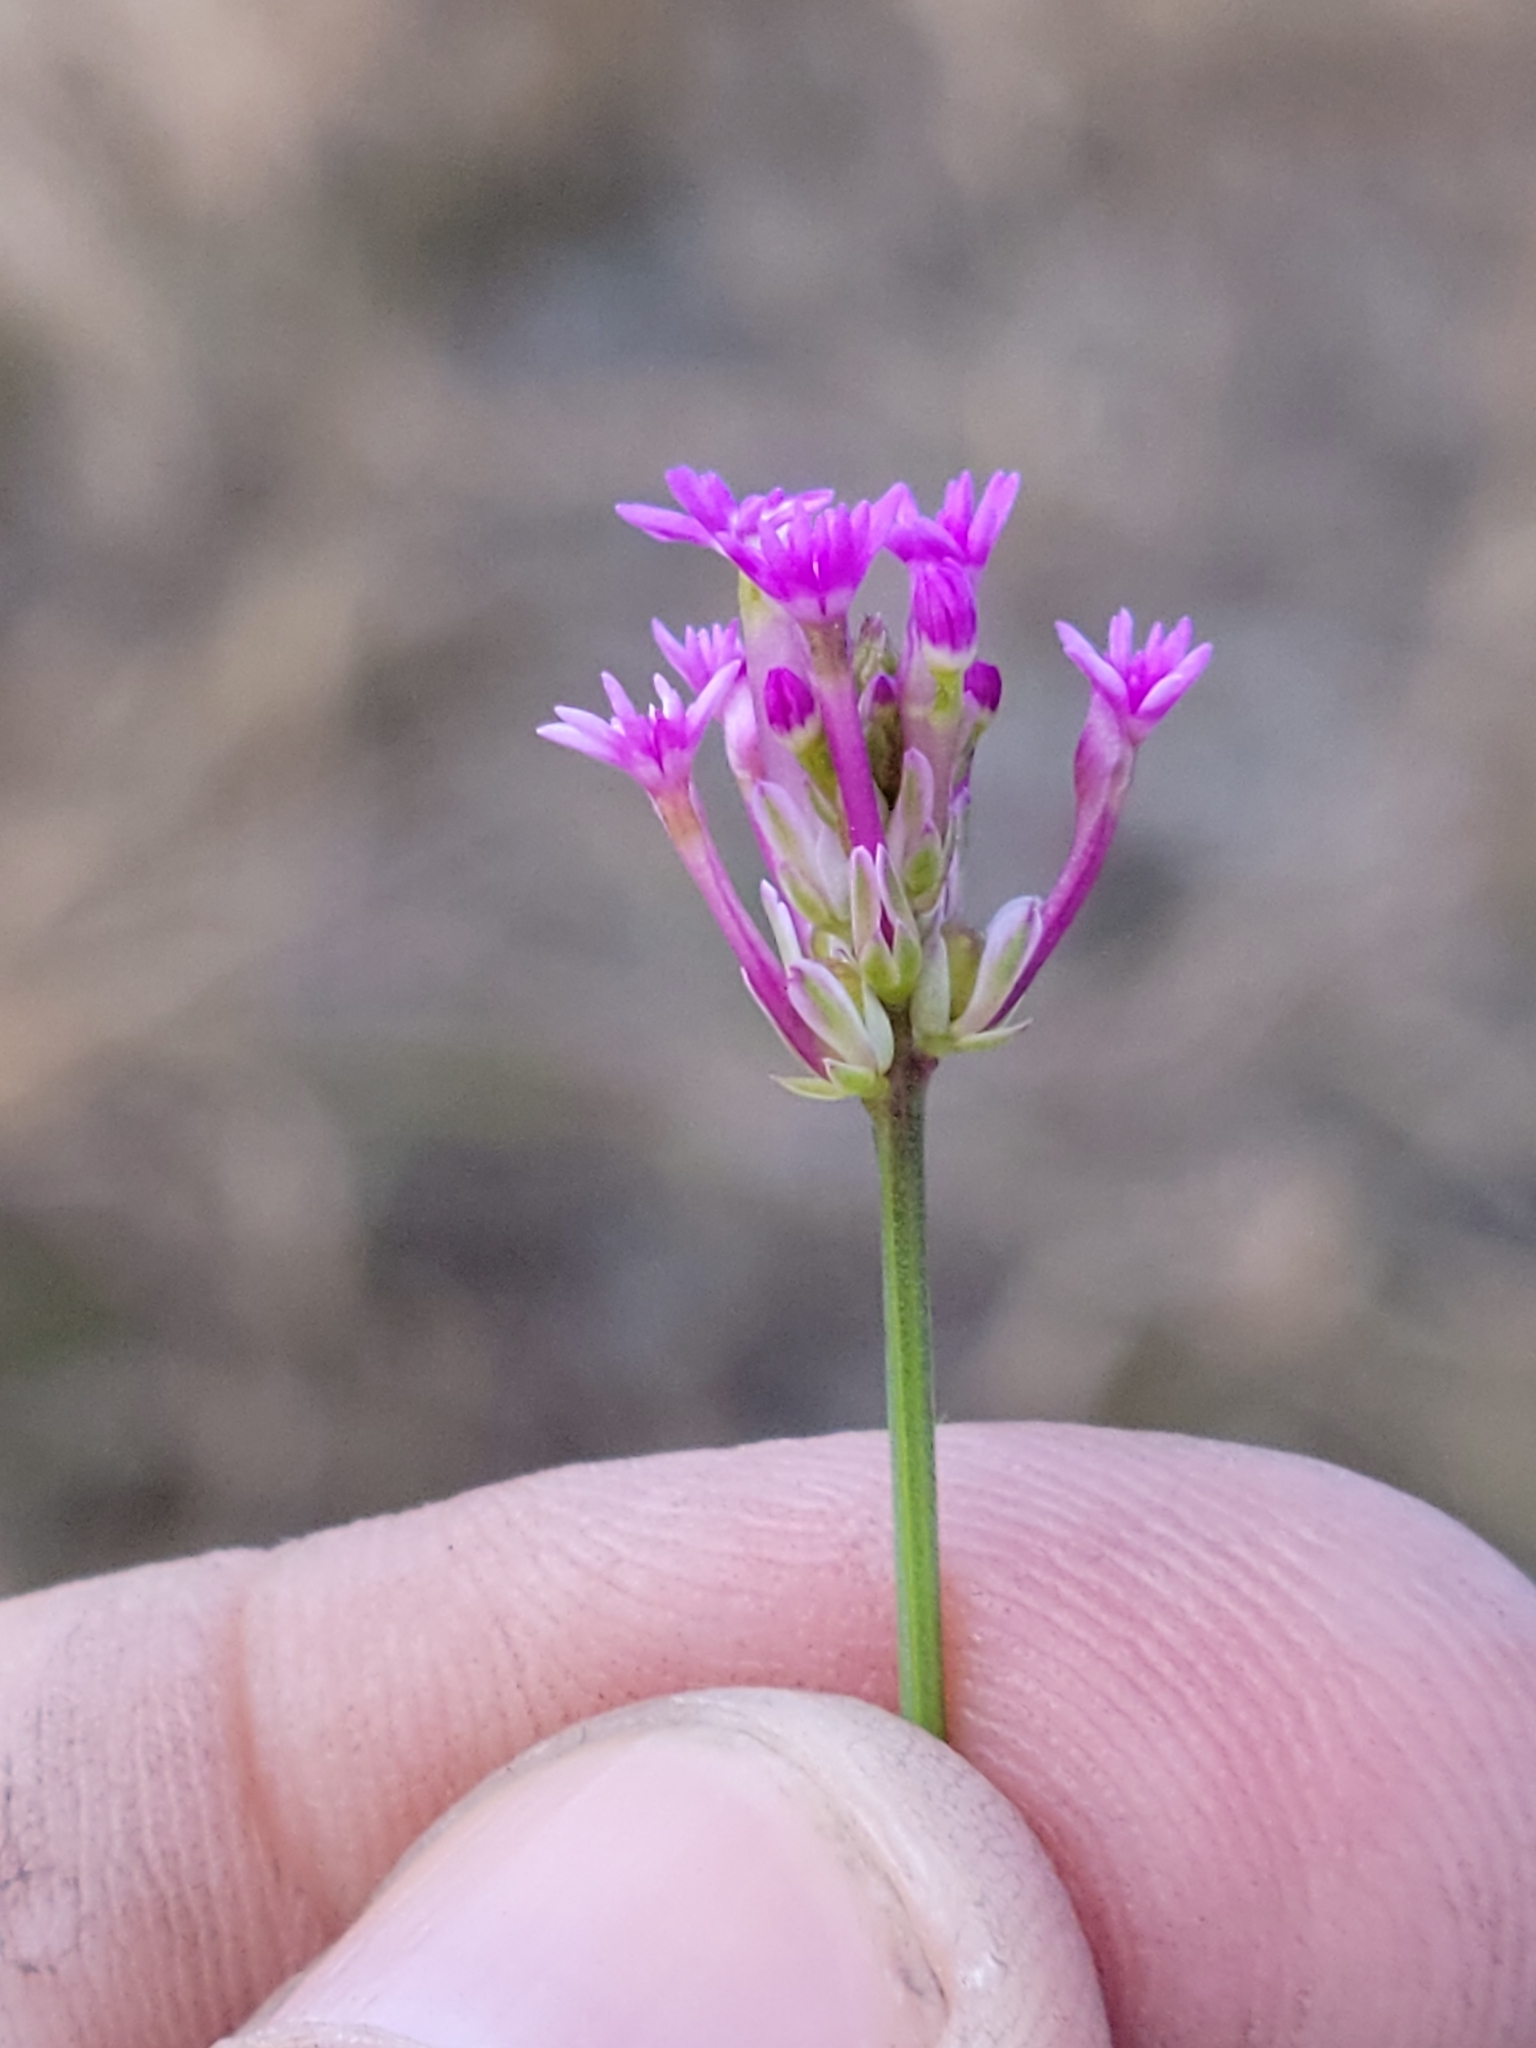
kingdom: Plantae
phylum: Tracheophyta
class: Magnoliopsida
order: Fabales
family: Polygalaceae
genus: Polygala
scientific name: Polygala incarnata
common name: Pink milkwort
